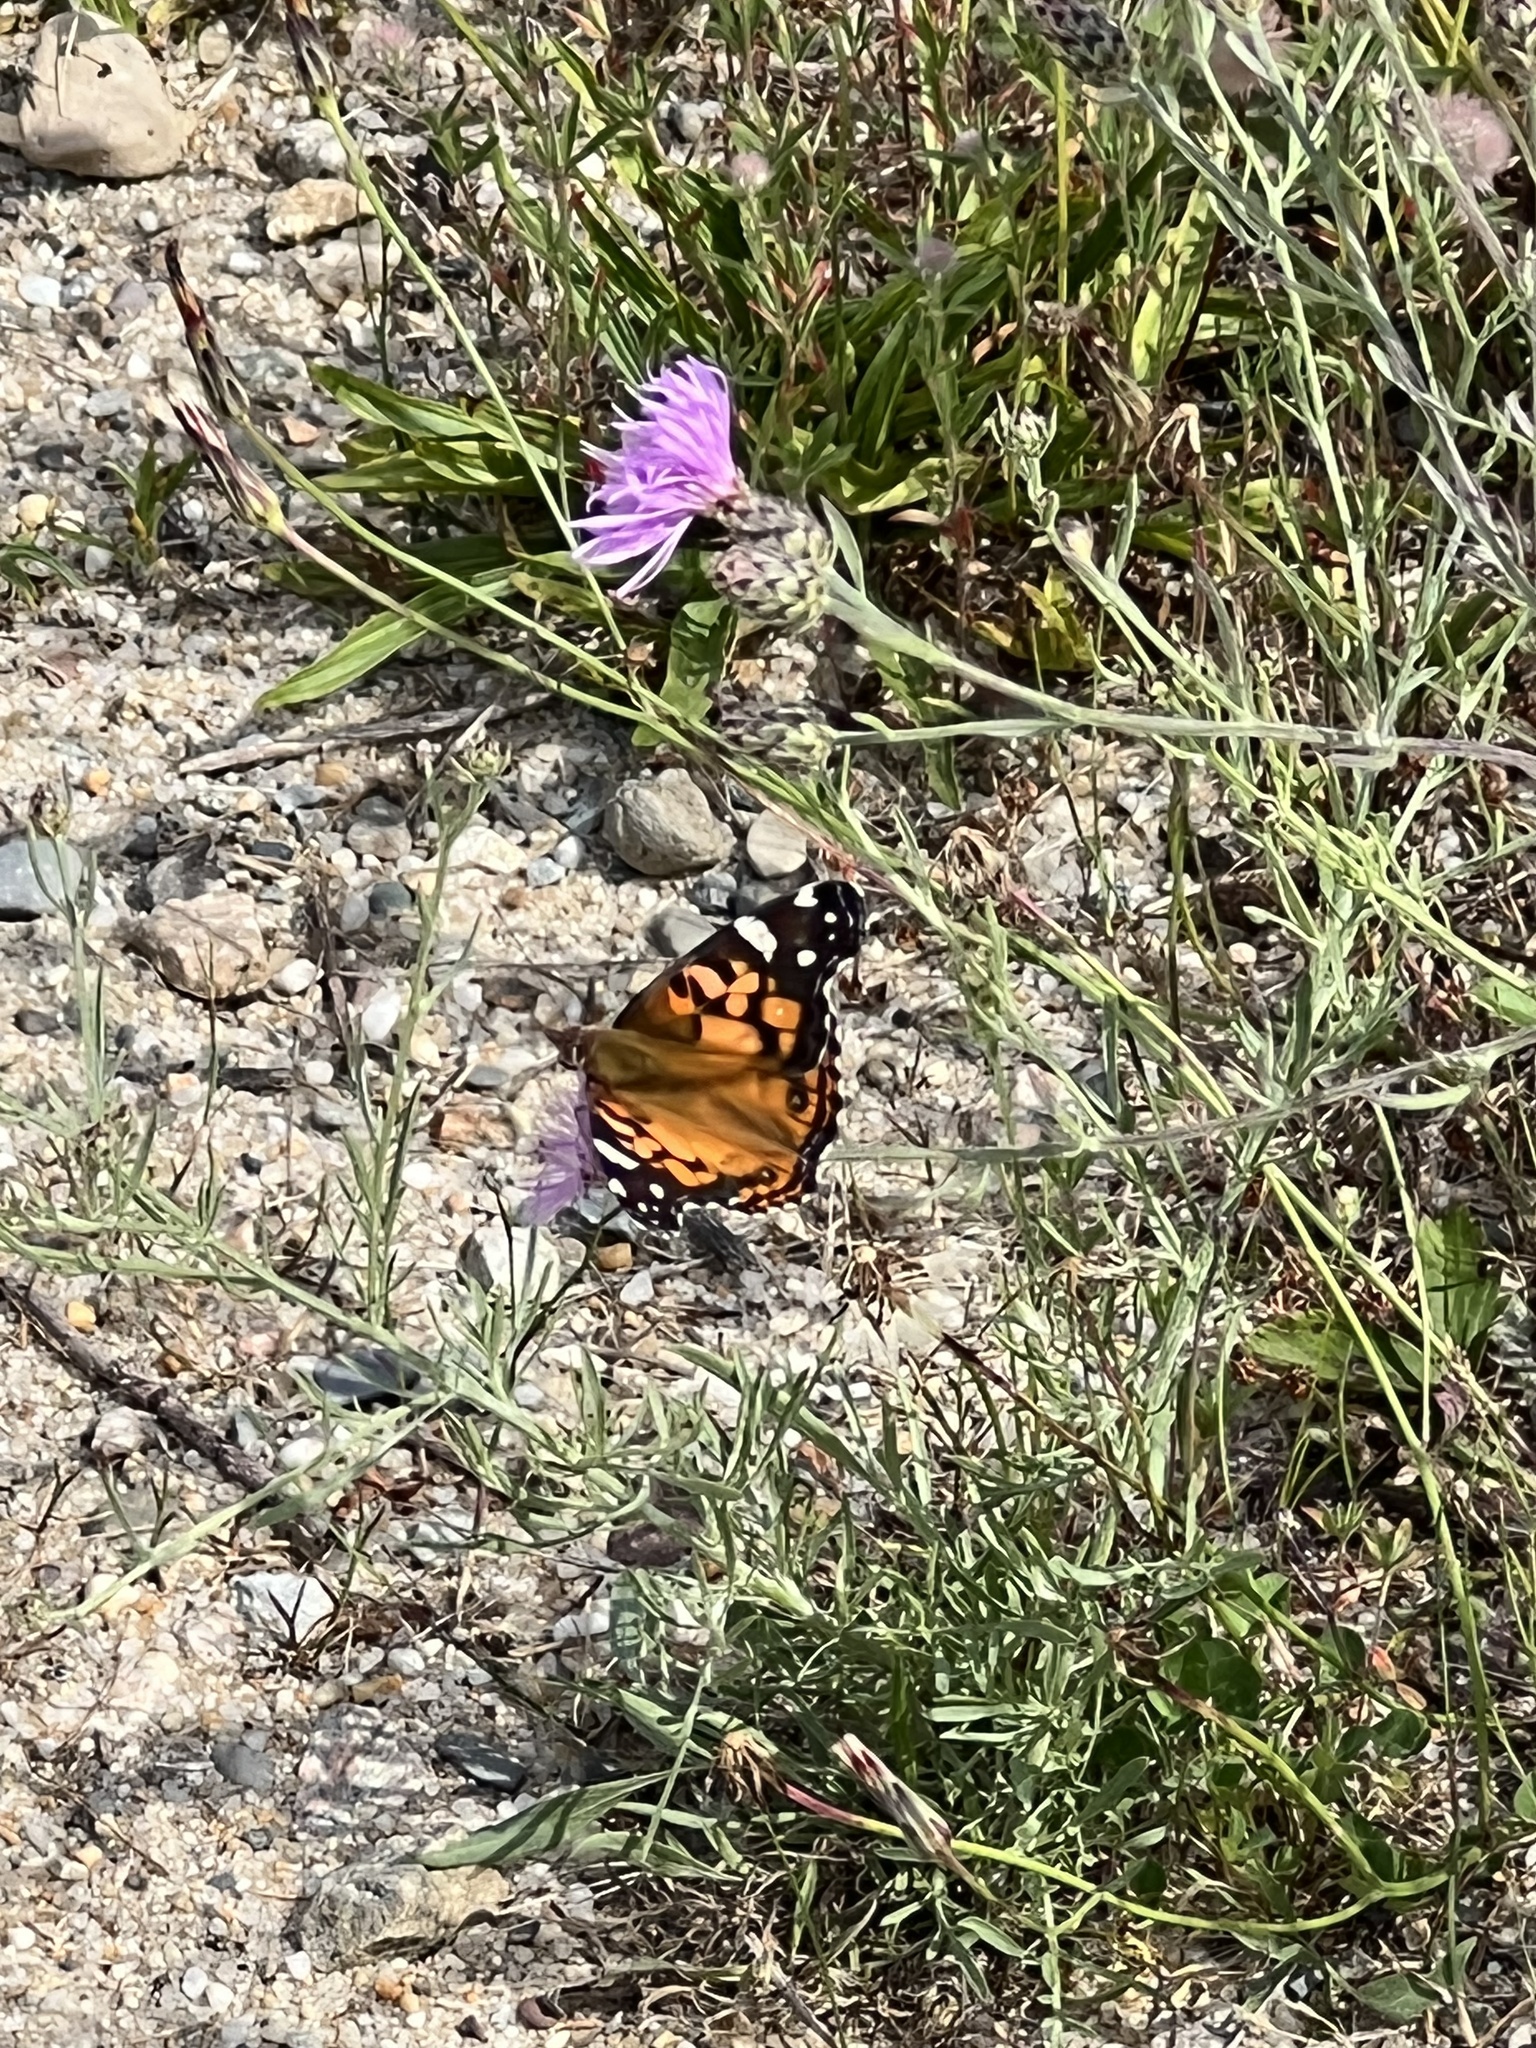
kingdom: Animalia
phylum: Arthropoda
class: Insecta
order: Lepidoptera
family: Nymphalidae
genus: Vanessa
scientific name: Vanessa virginiensis
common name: American lady
